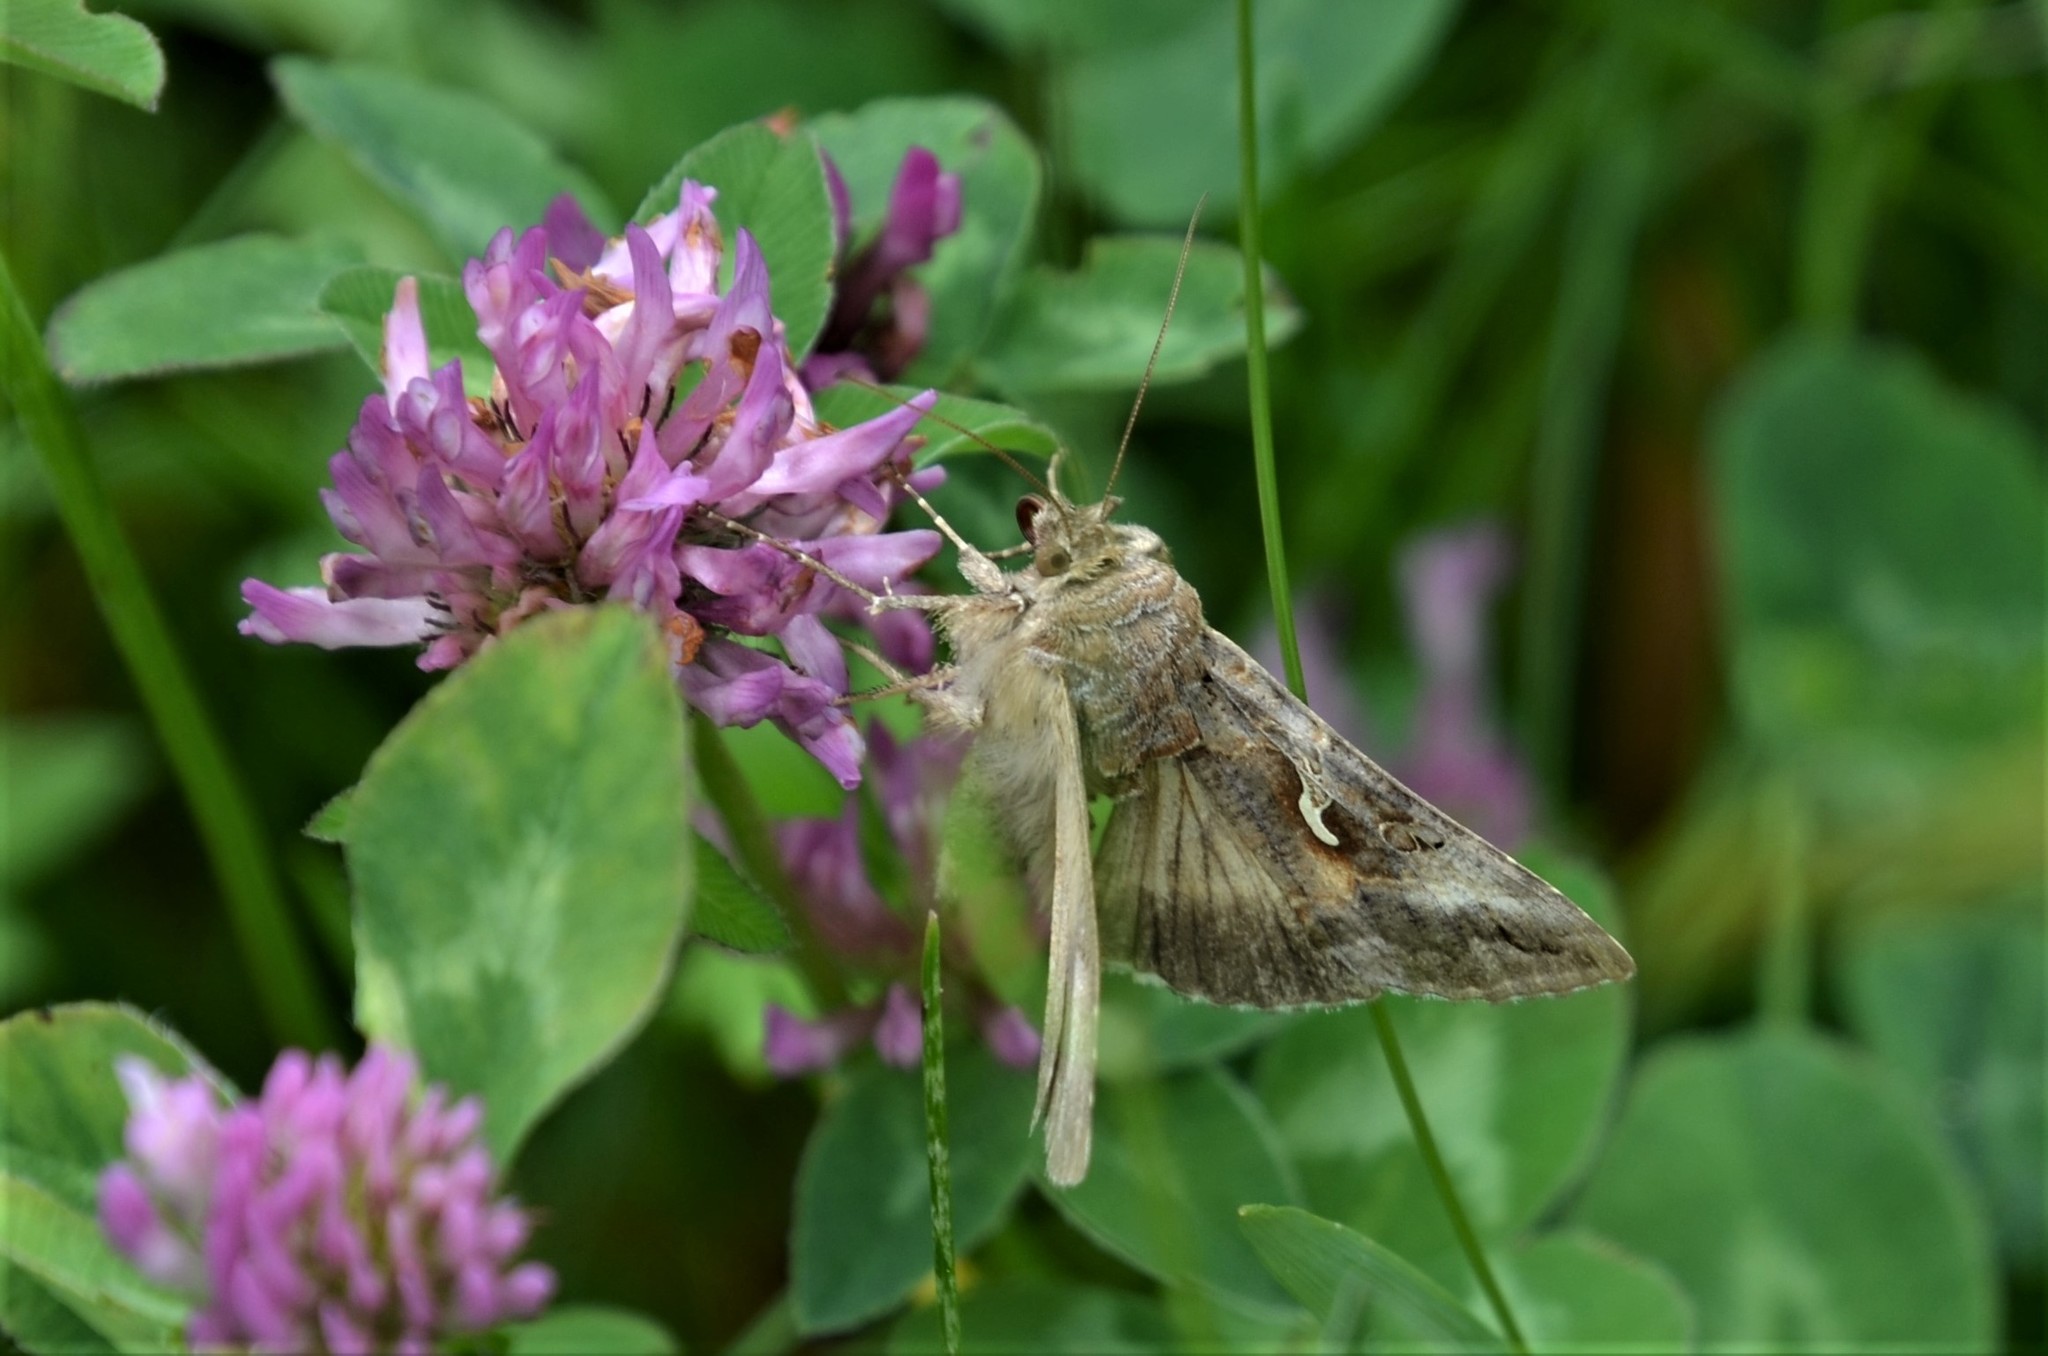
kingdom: Animalia
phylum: Arthropoda
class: Insecta
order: Lepidoptera
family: Noctuidae
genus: Autographa
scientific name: Autographa gamma
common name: Silver y
